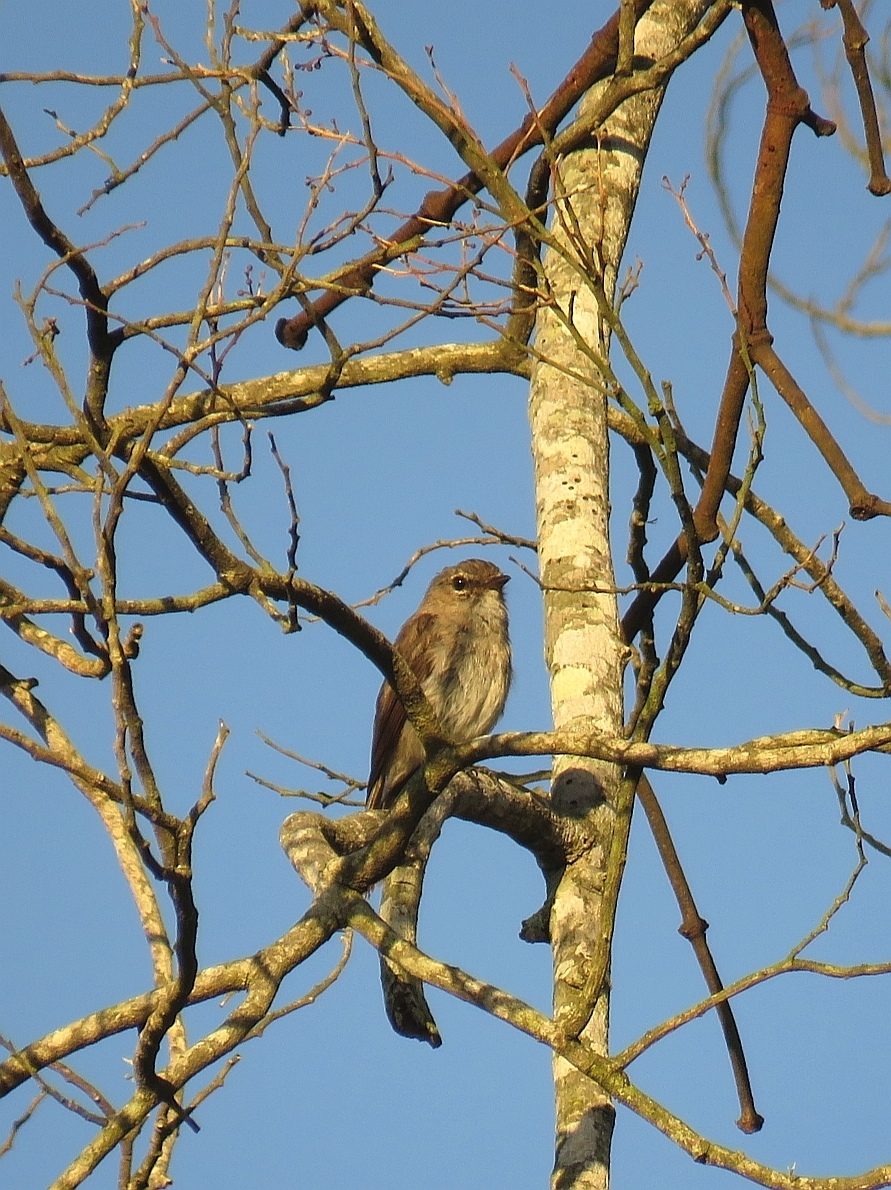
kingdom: Animalia
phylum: Chordata
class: Aves
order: Passeriformes
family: Muscicapidae
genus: Muscicapa
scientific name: Muscicapa adusta
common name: African dusky flycatcher
